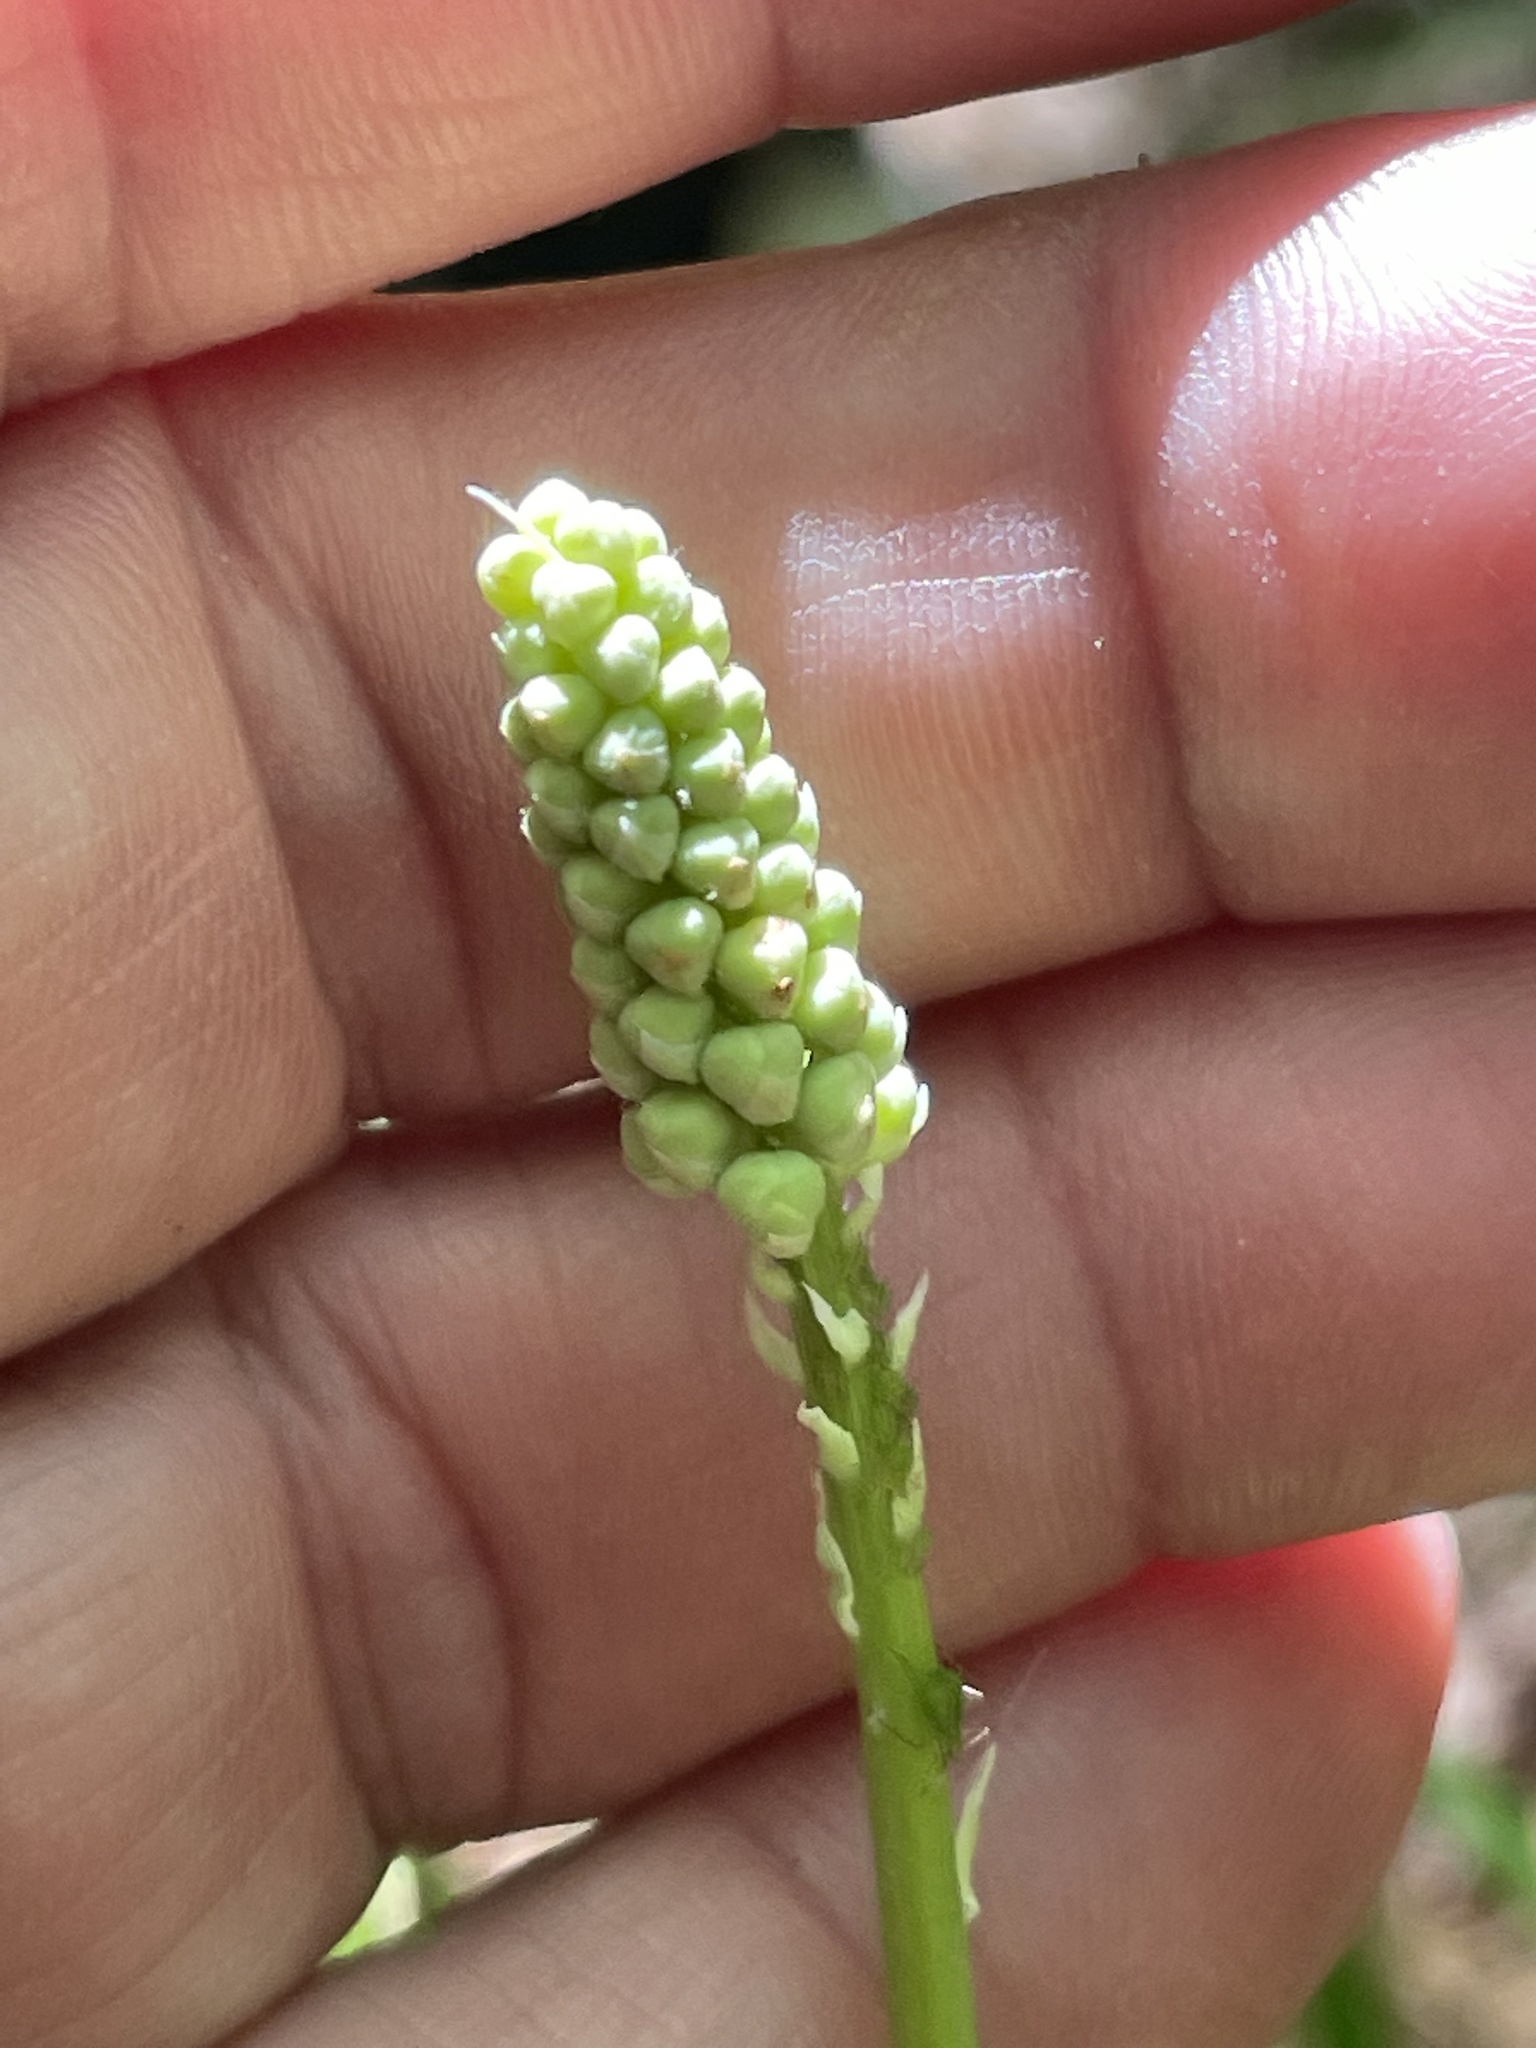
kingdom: Plantae
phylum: Tracheophyta
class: Liliopsida
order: Liliales
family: Melanthiaceae
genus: Amianthium
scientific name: Amianthium muscitoxicum
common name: Fly-poison
